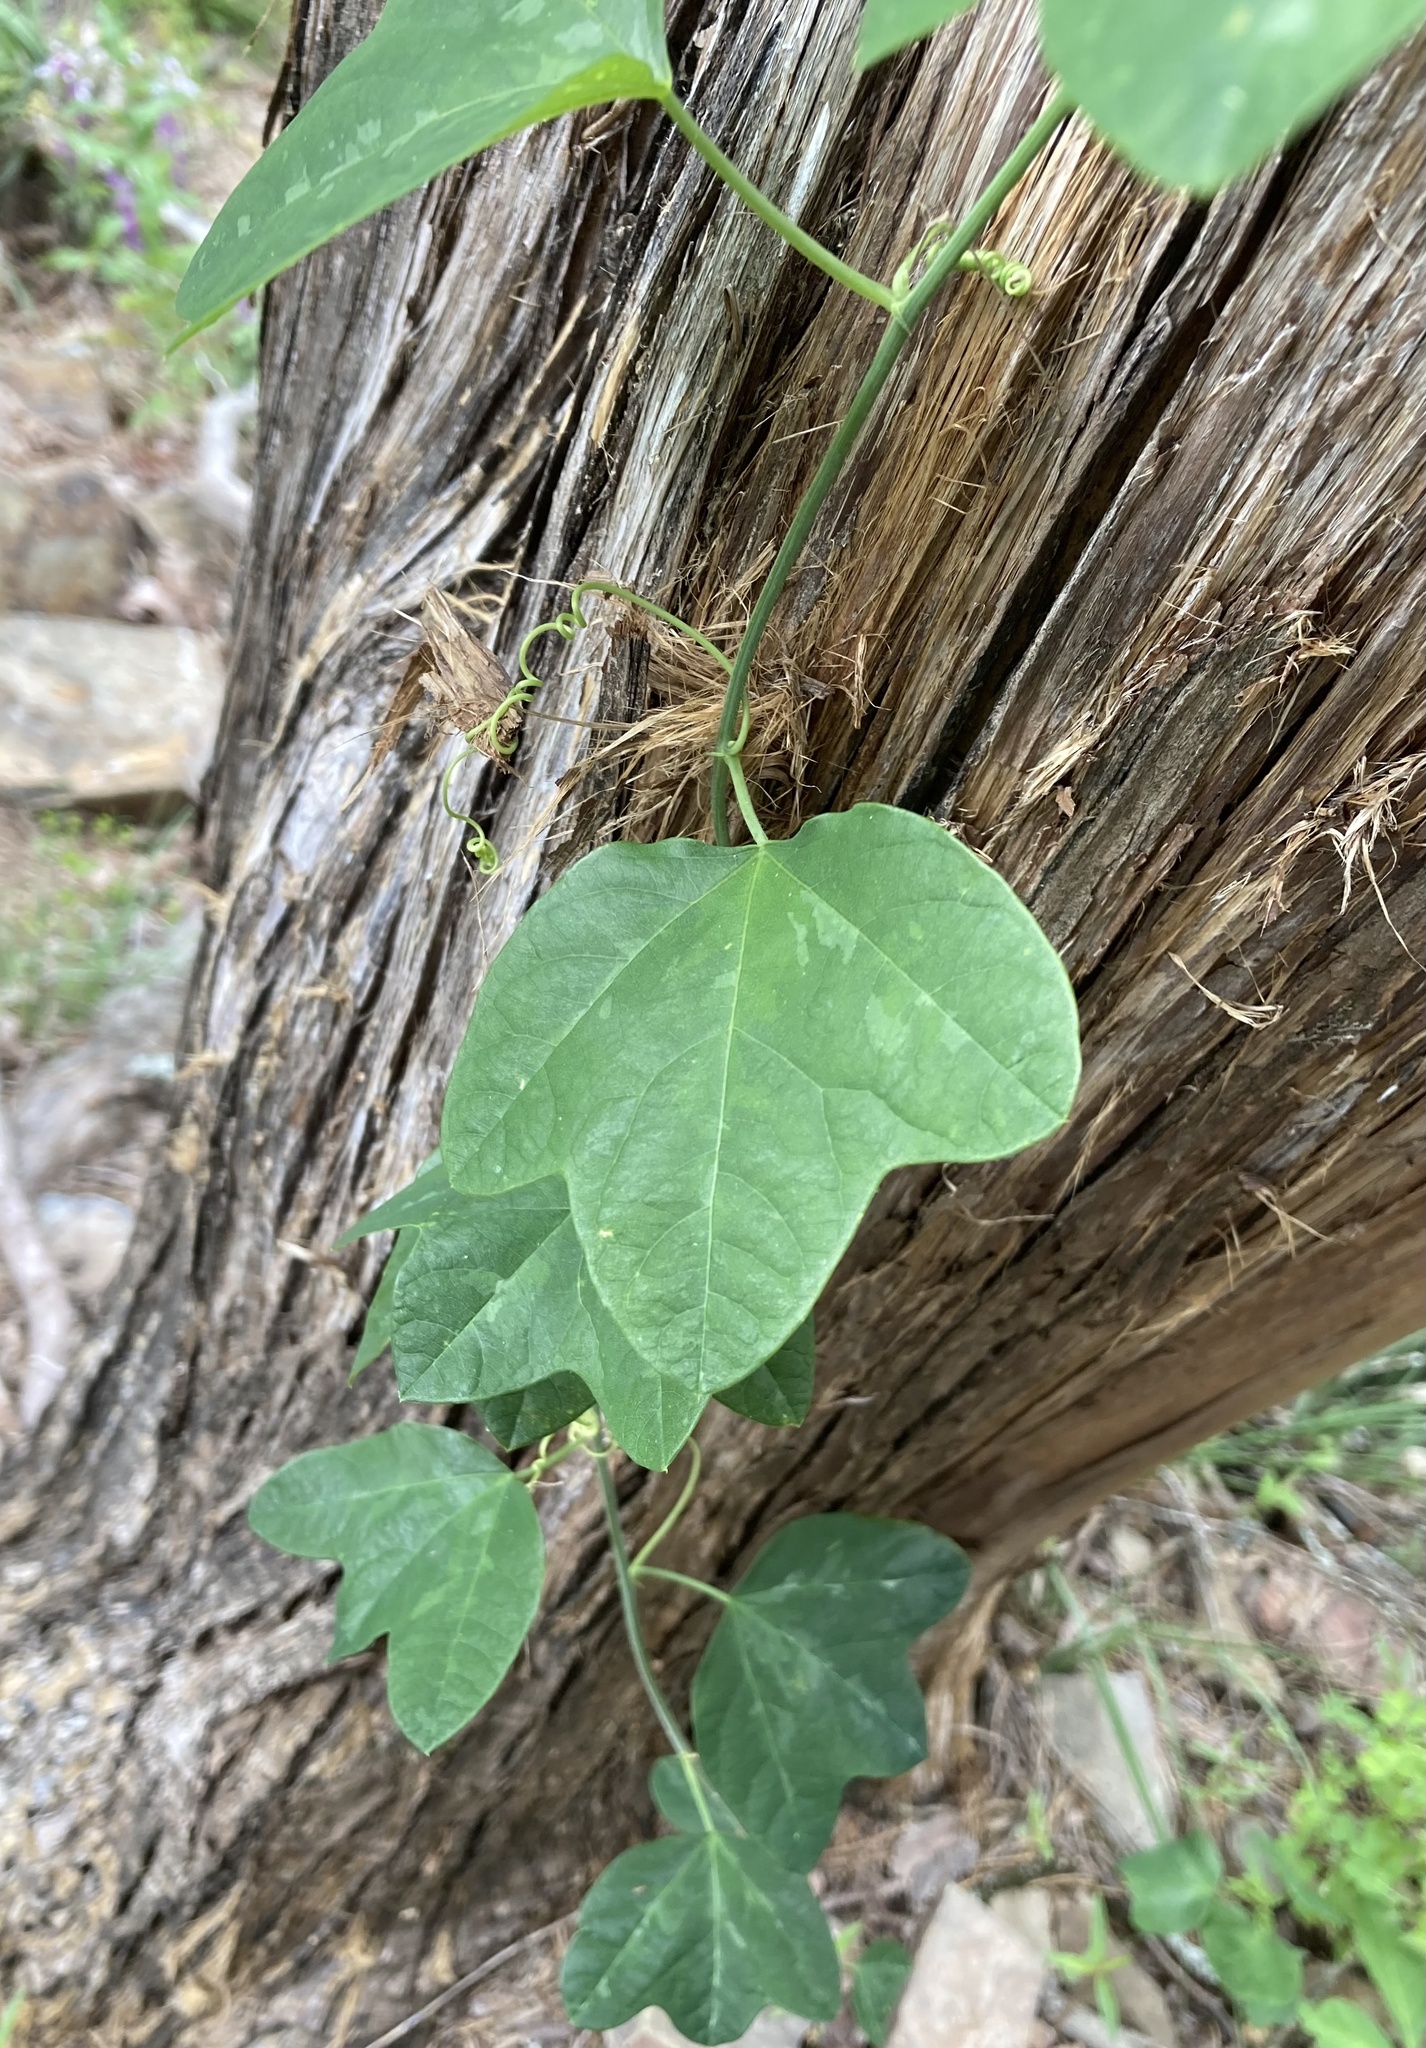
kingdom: Plantae
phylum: Tracheophyta
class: Magnoliopsida
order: Malpighiales
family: Passifloraceae
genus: Passiflora
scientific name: Passiflora lutea
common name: Yellow passionflower
